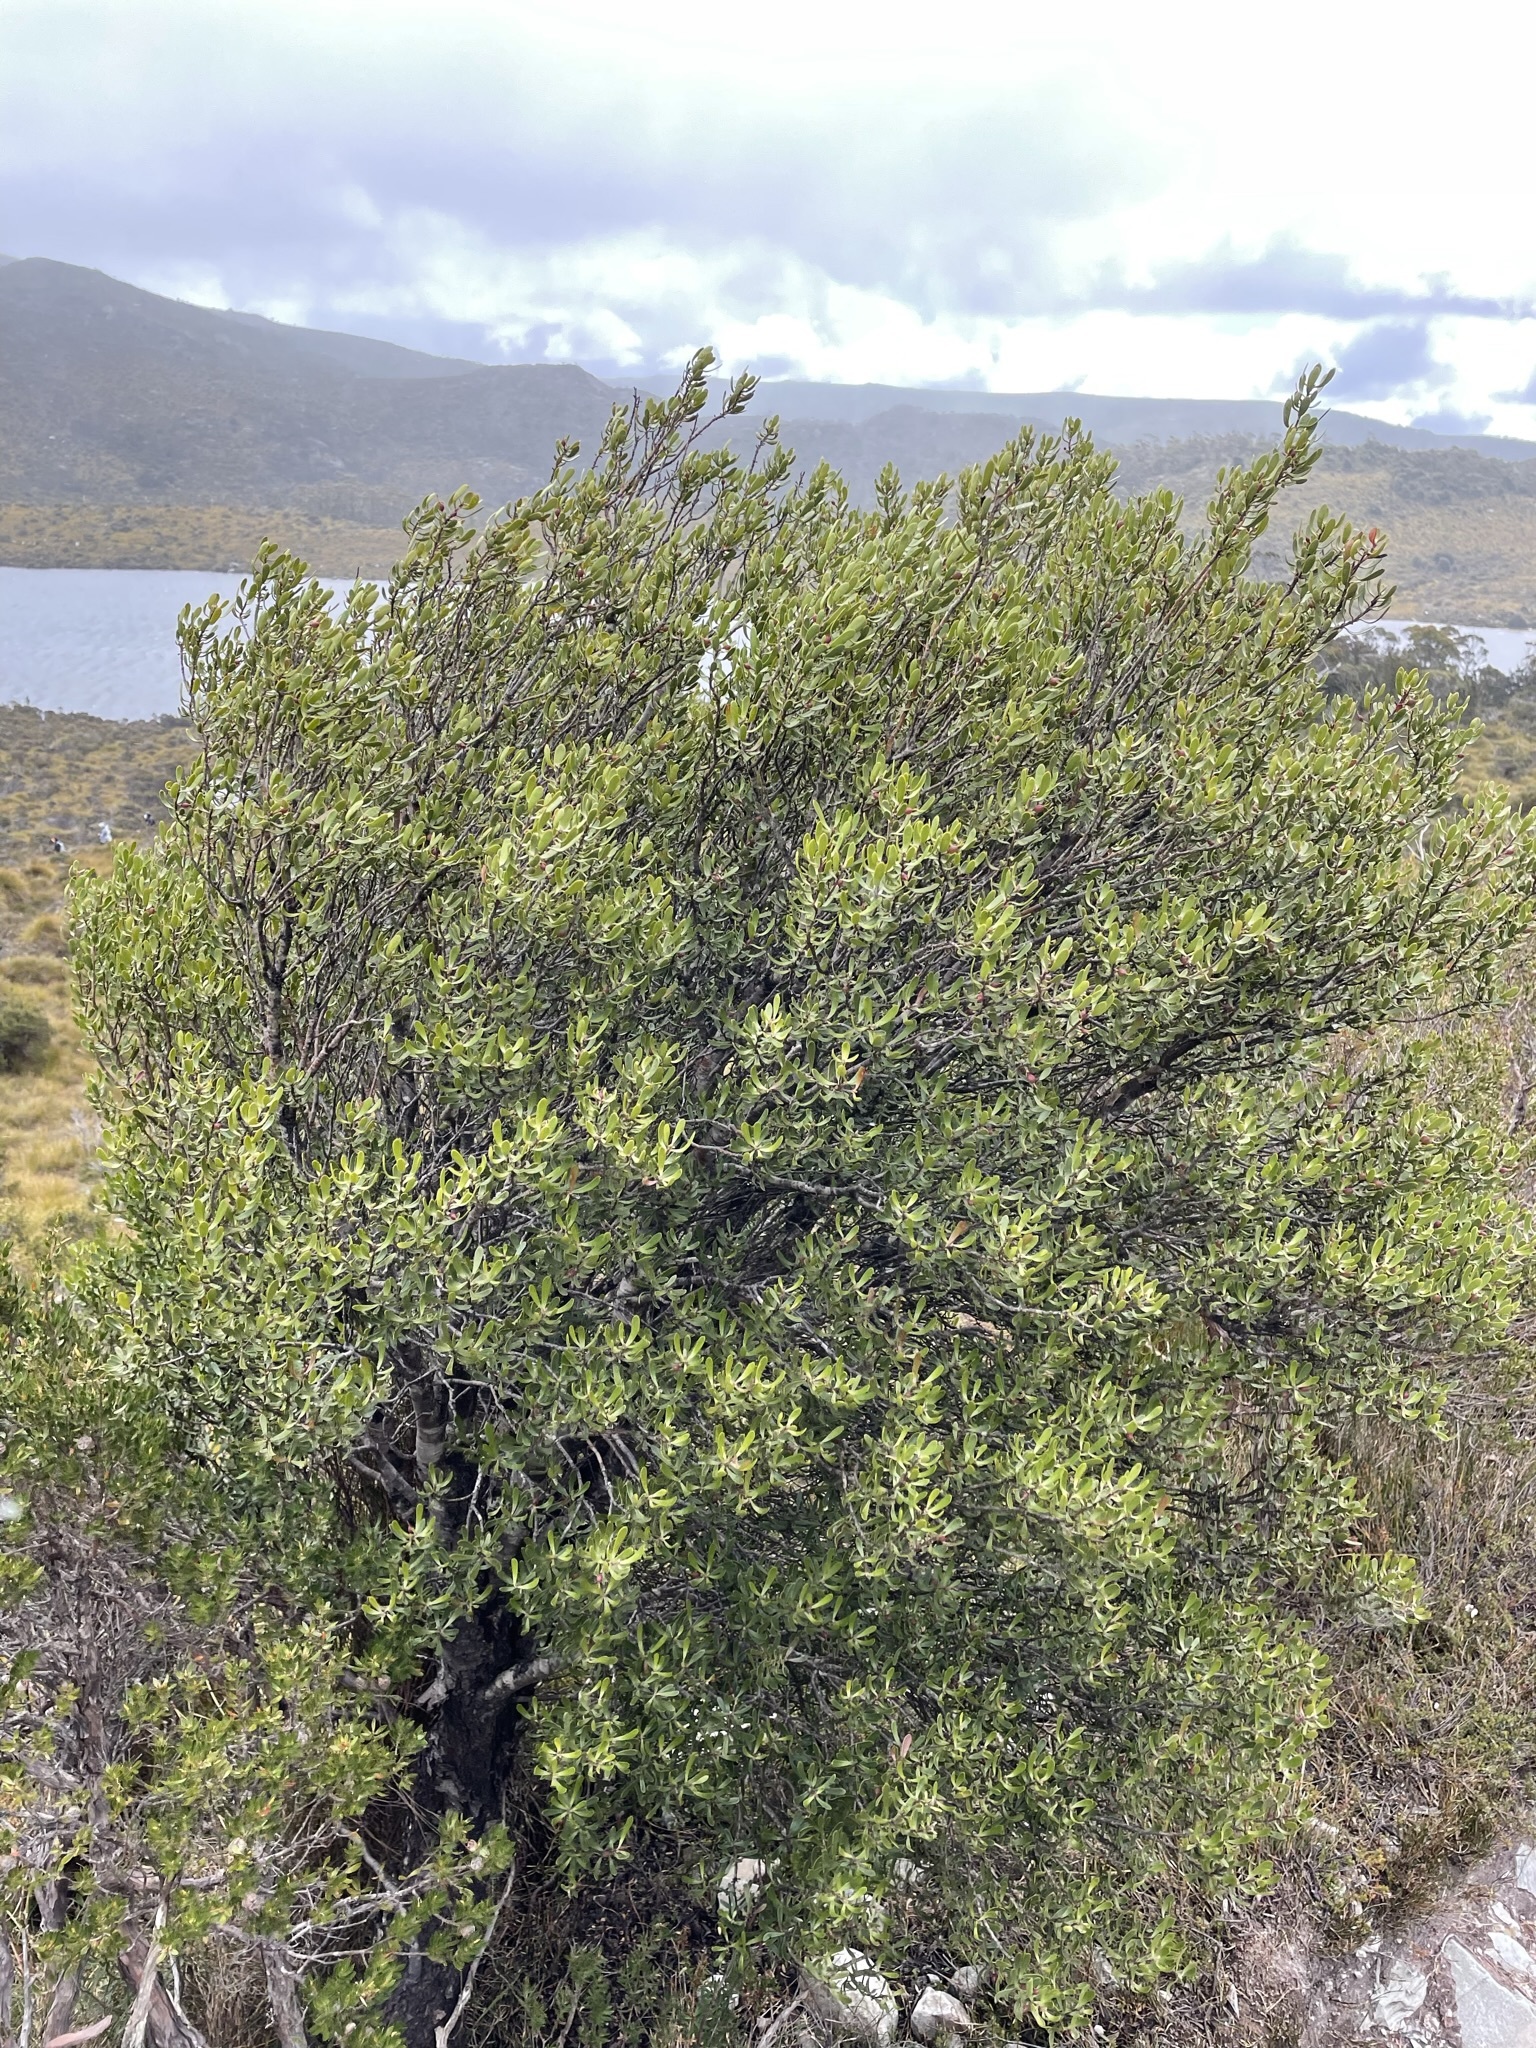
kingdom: Plantae
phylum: Tracheophyta
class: Magnoliopsida
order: Proteales
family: Proteaceae
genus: Persoonia
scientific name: Persoonia gunnii
